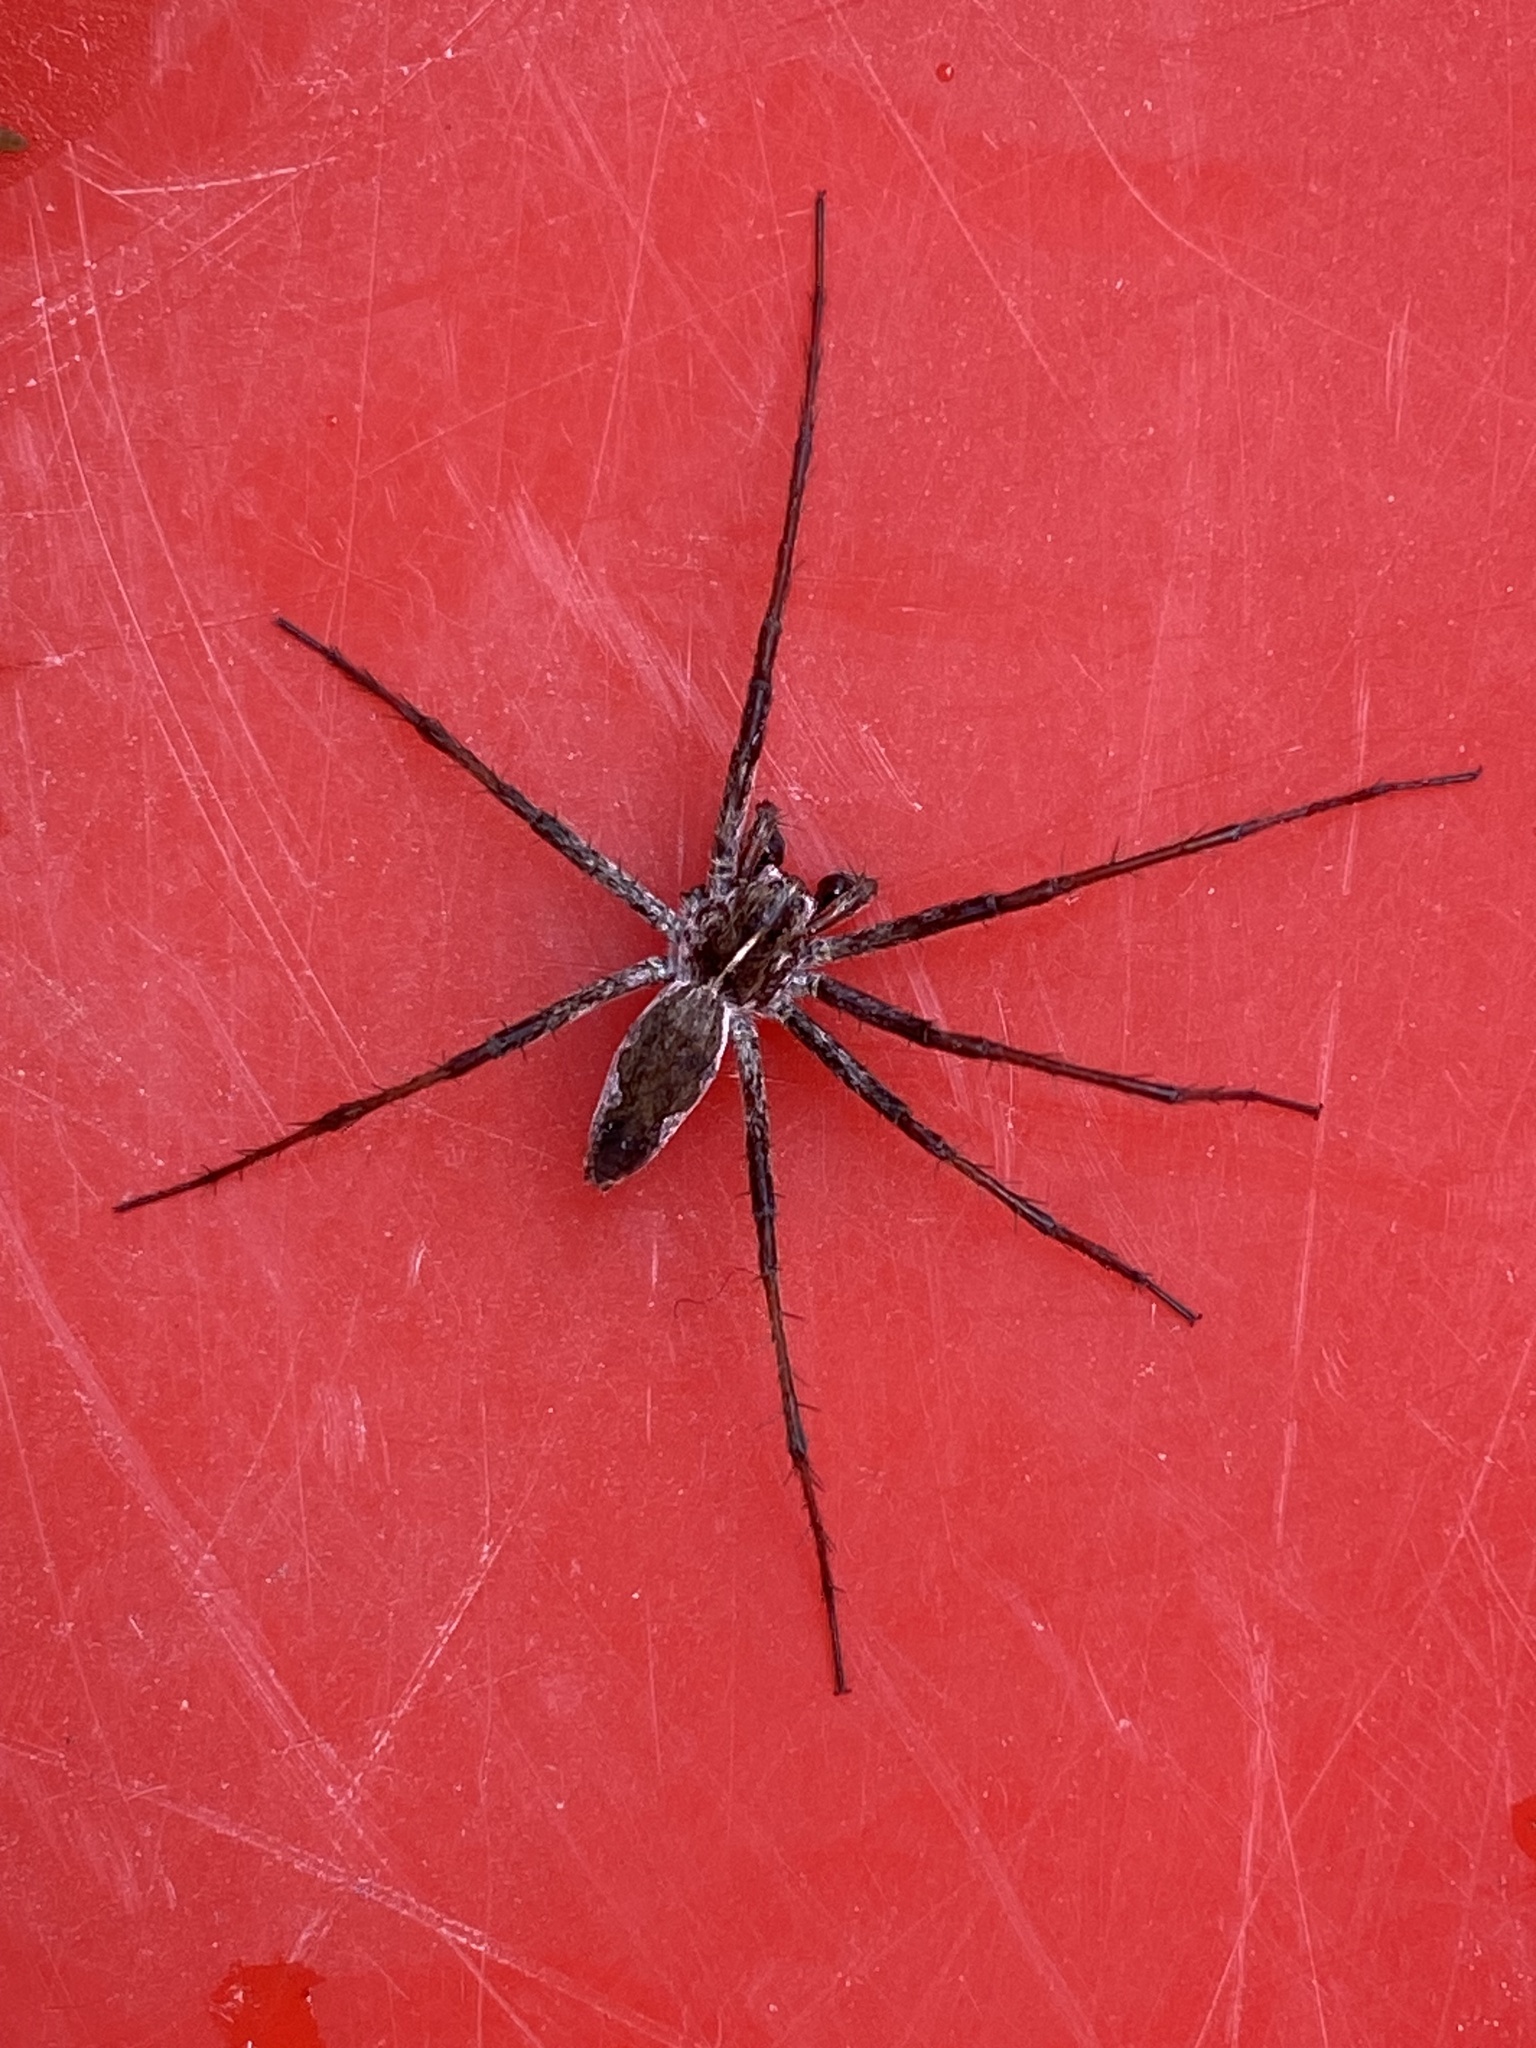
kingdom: Animalia
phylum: Arthropoda
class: Arachnida
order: Araneae
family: Pisauridae
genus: Pisaura
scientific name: Pisaura
